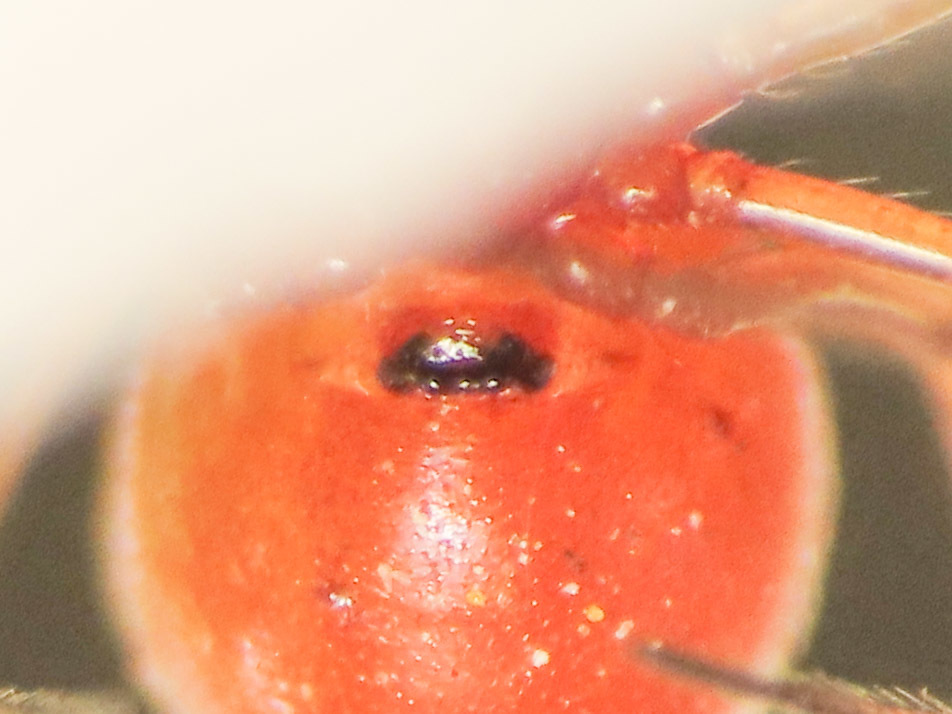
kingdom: Animalia
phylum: Arthropoda
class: Arachnida
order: Araneae
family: Linyphiidae
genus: Nematogmus
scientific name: Nematogmus sanguinolentus
